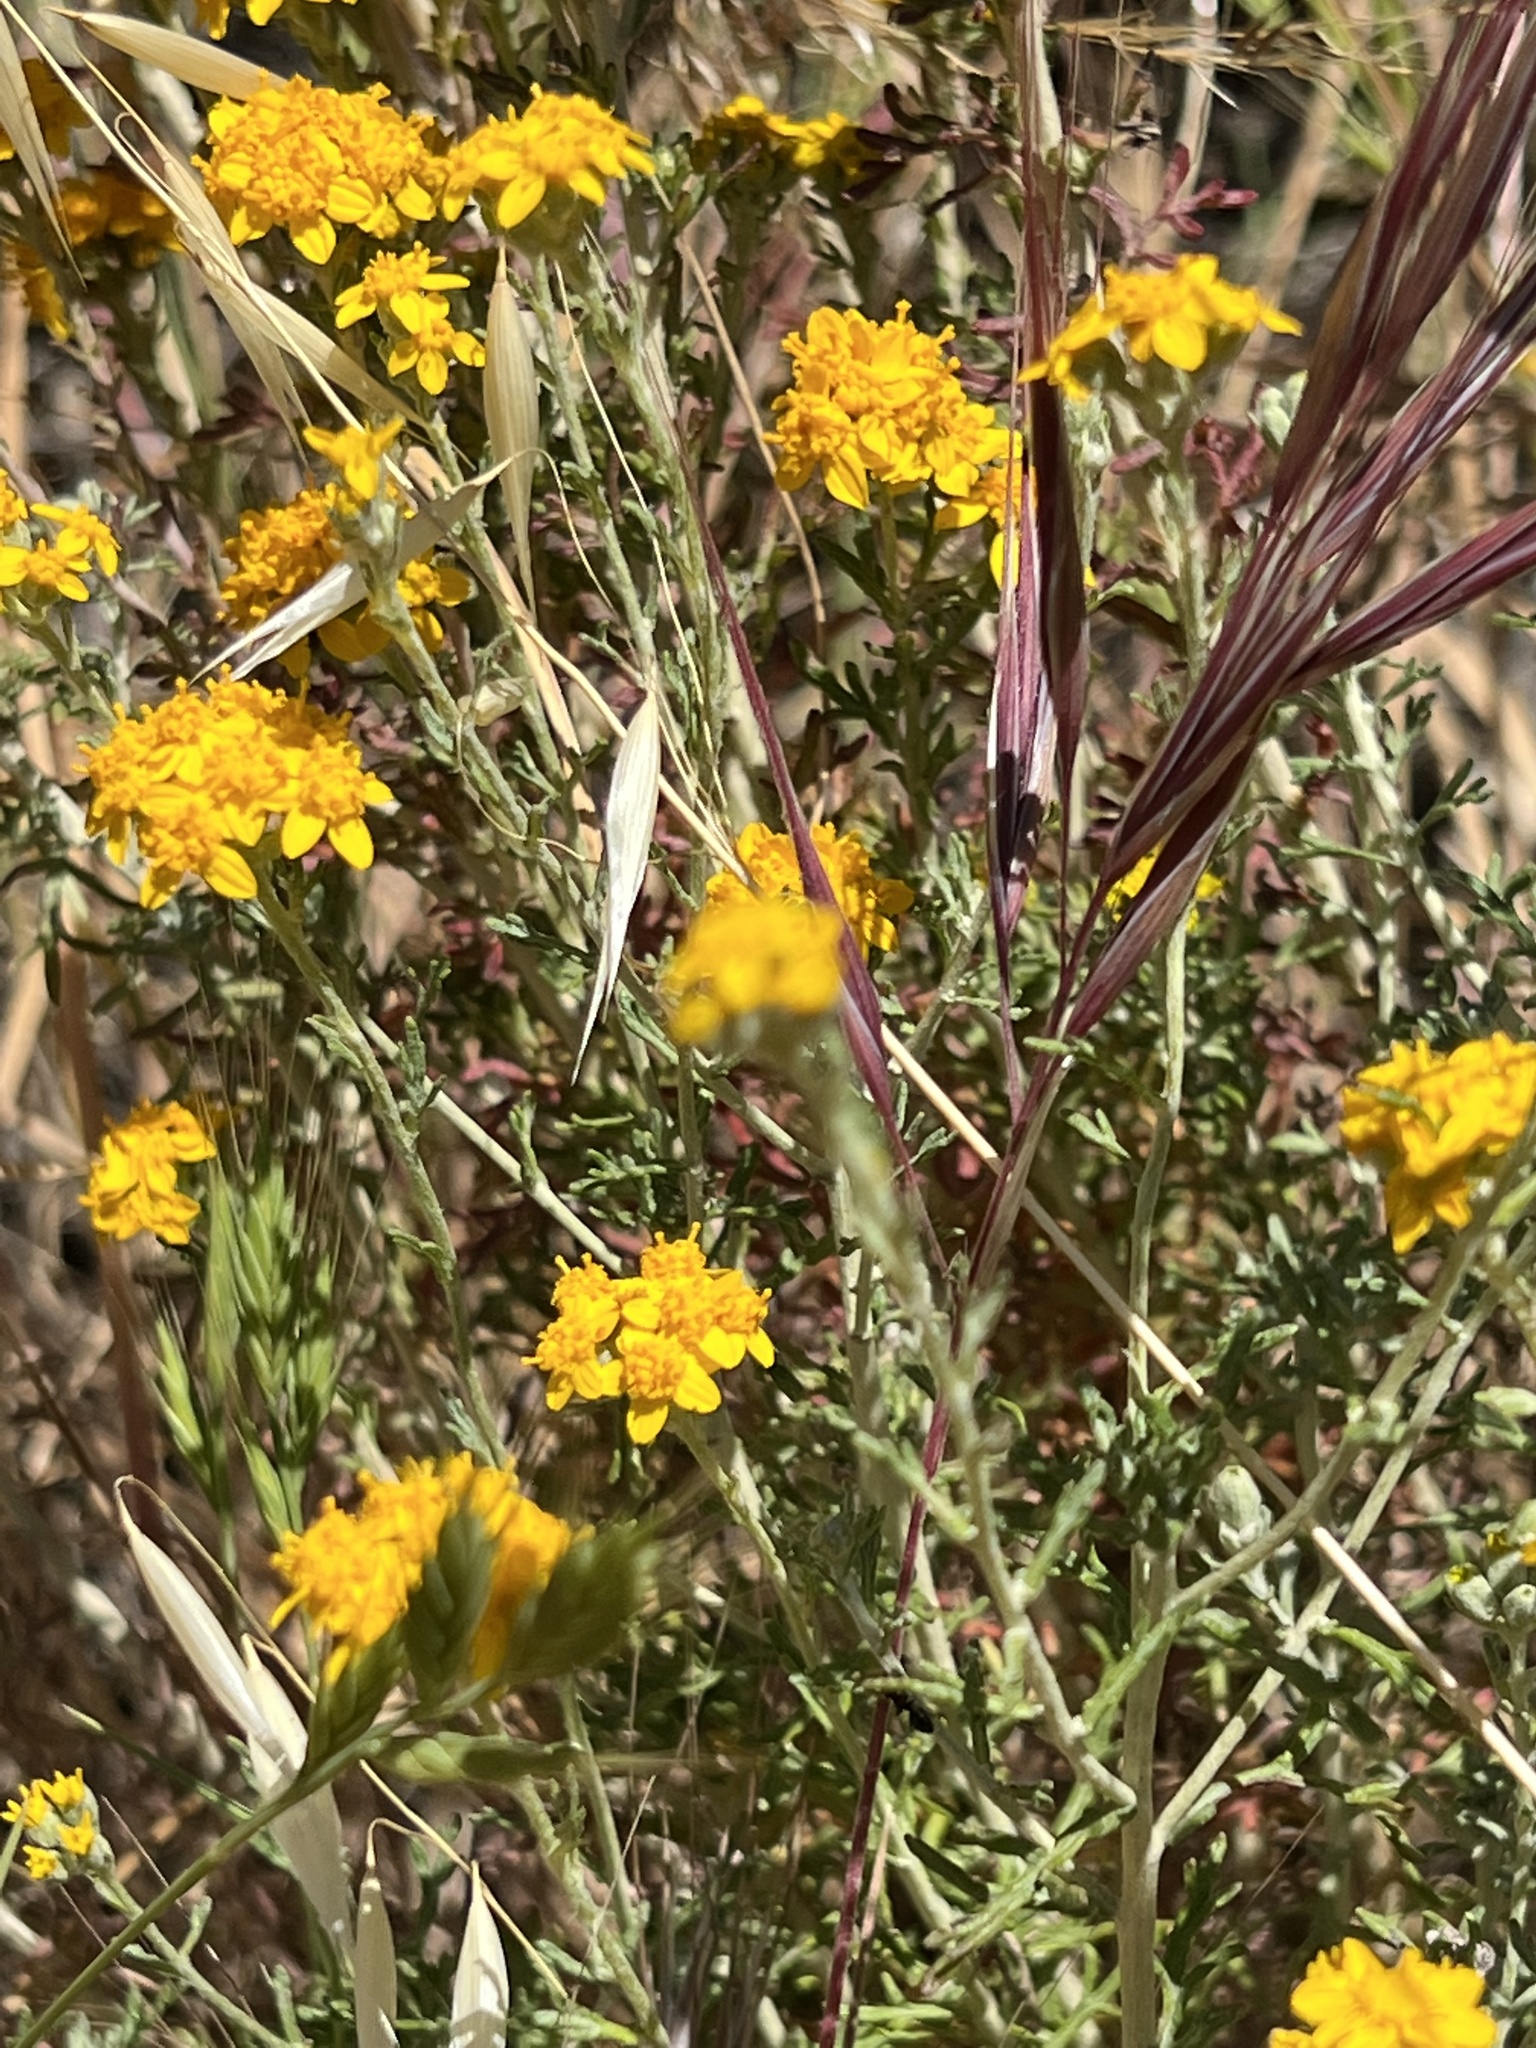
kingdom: Plantae
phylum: Tracheophyta
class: Magnoliopsida
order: Asterales
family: Asteraceae
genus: Eriophyllum
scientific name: Eriophyllum confertiflorum
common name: Golden-yarrow
